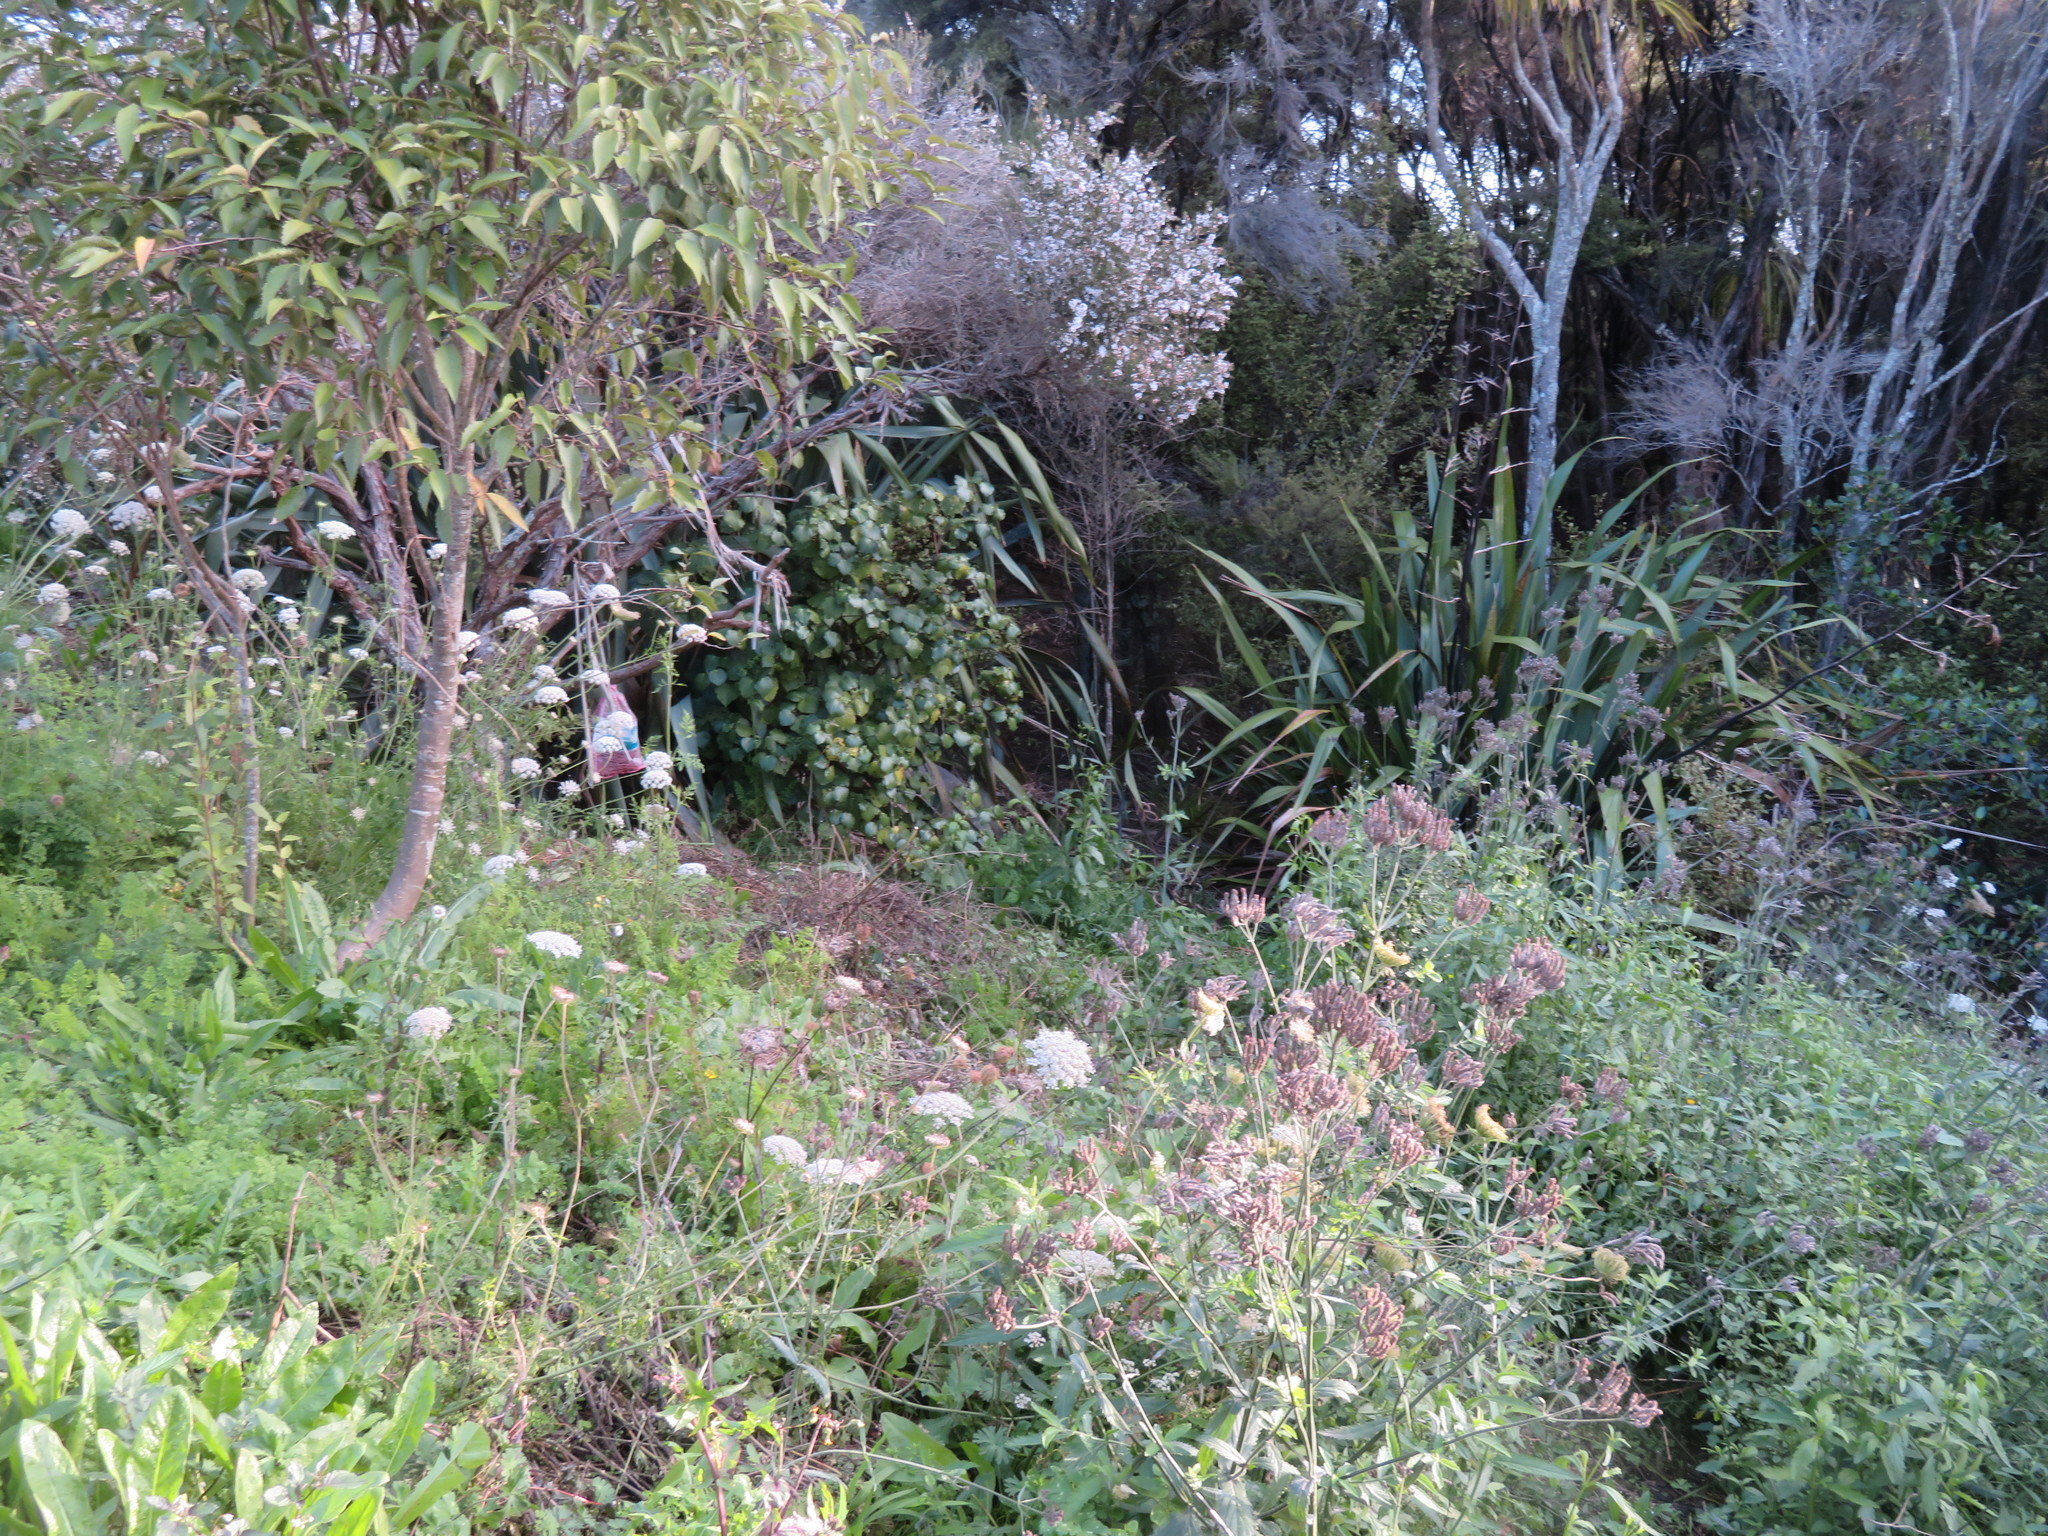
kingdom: Plantae
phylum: Tracheophyta
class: Magnoliopsida
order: Piperales
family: Piperaceae
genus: Macropiper
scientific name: Macropiper excelsum
